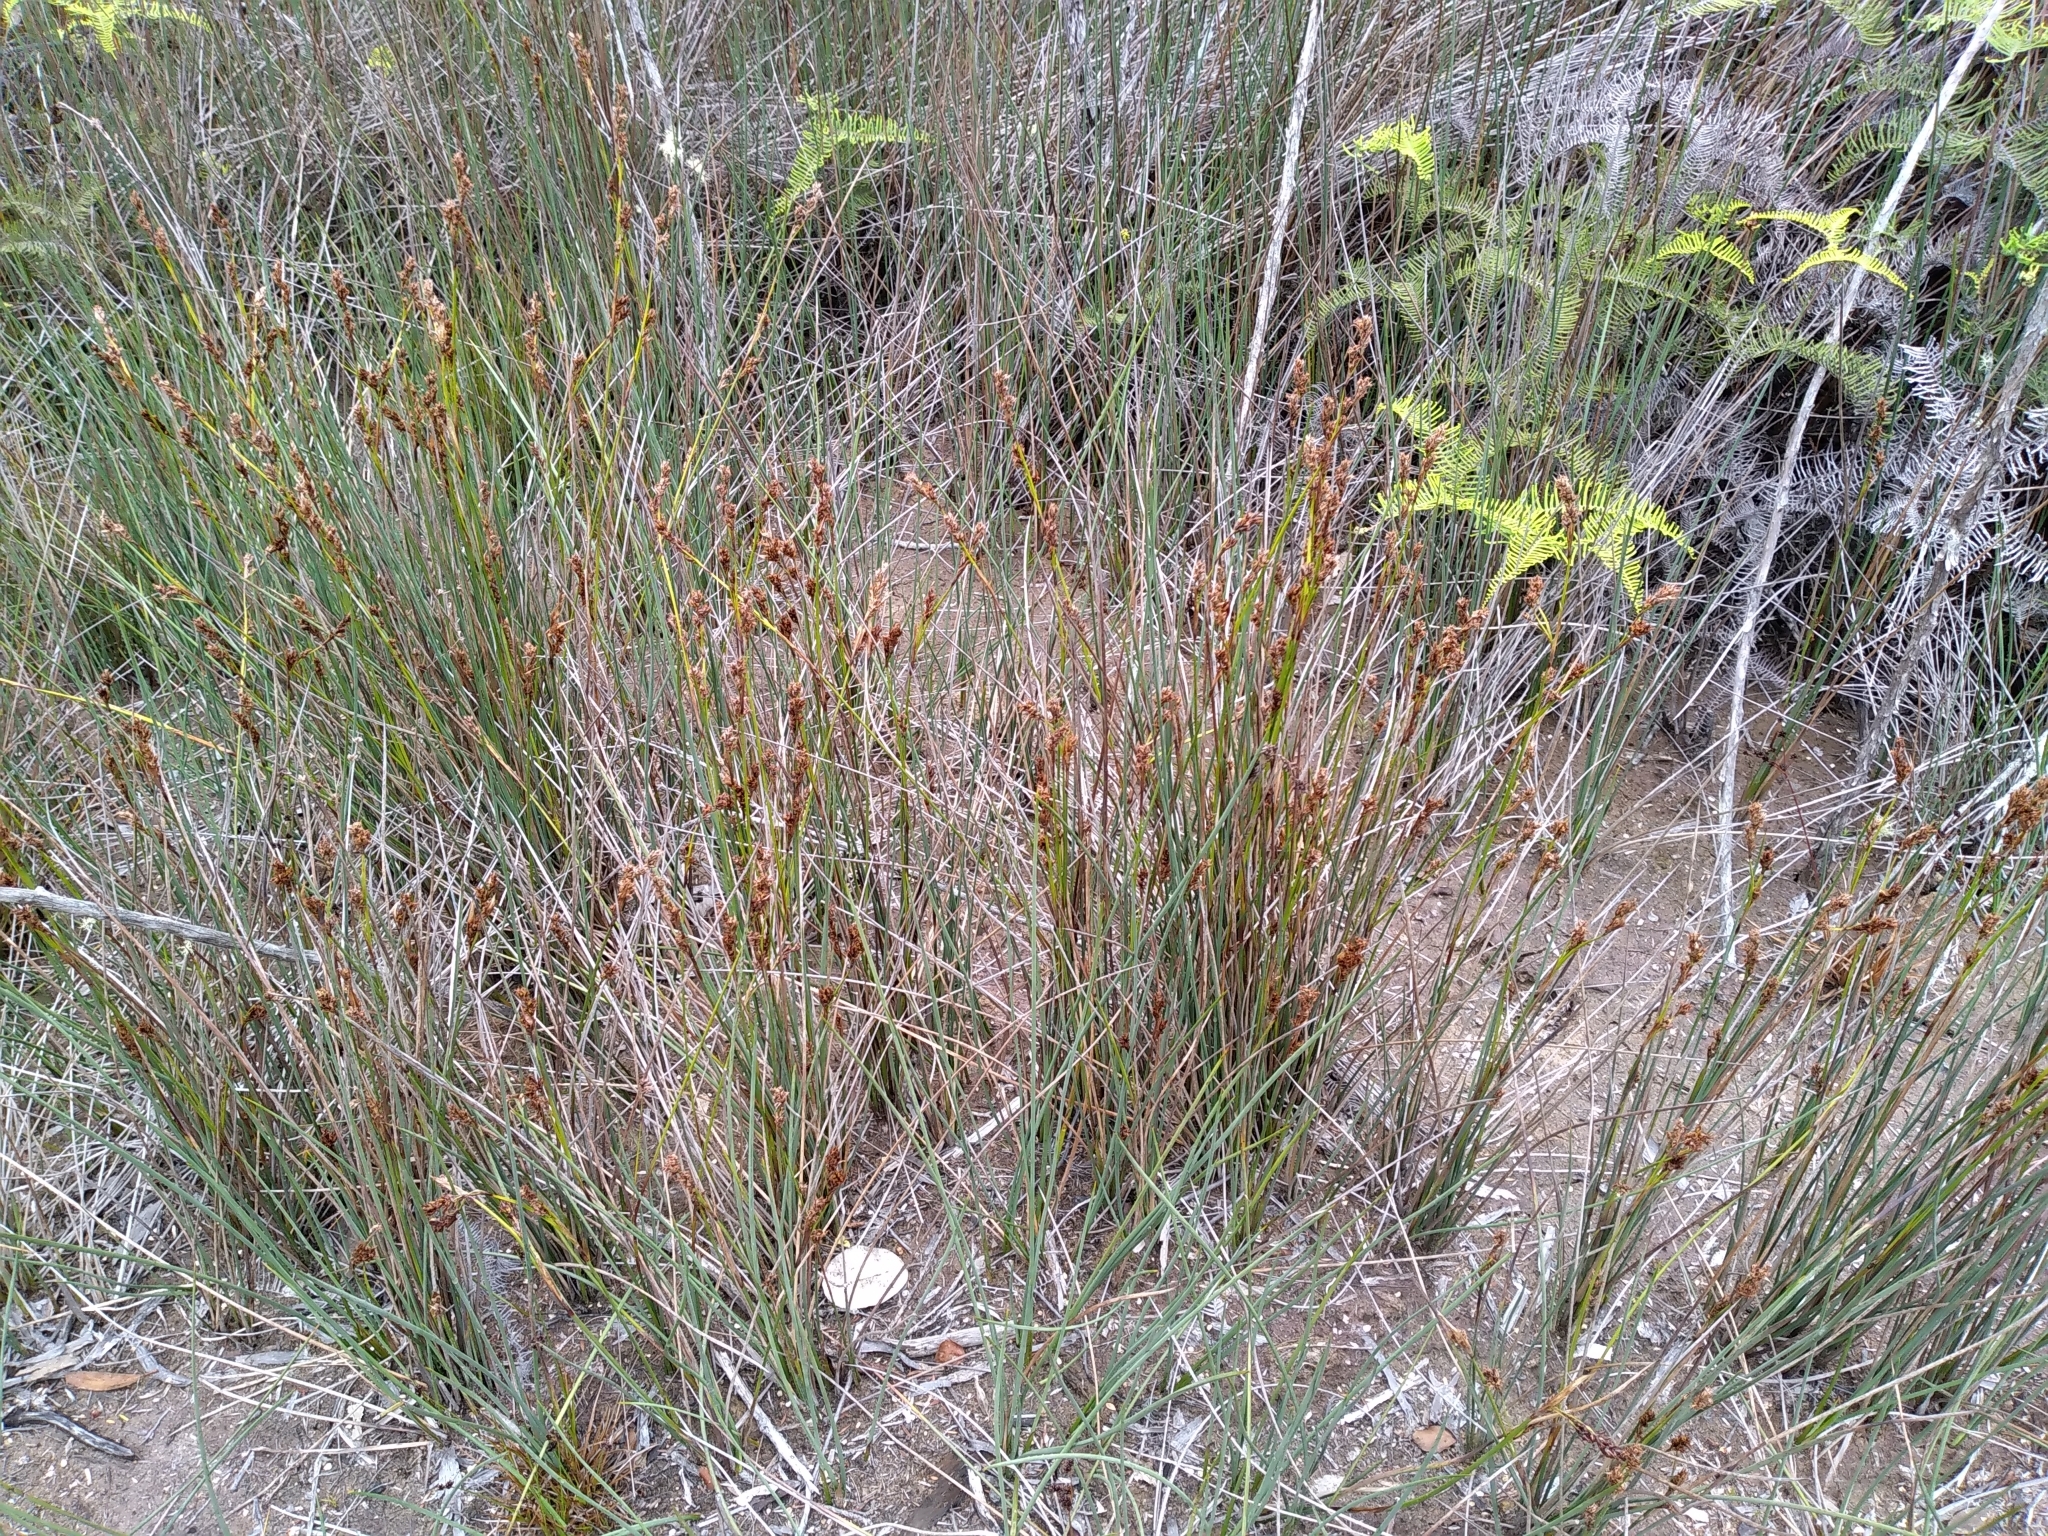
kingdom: Plantae
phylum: Tracheophyta
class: Liliopsida
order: Poales
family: Cyperaceae
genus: Machaerina
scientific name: Machaerina rubiginosa
